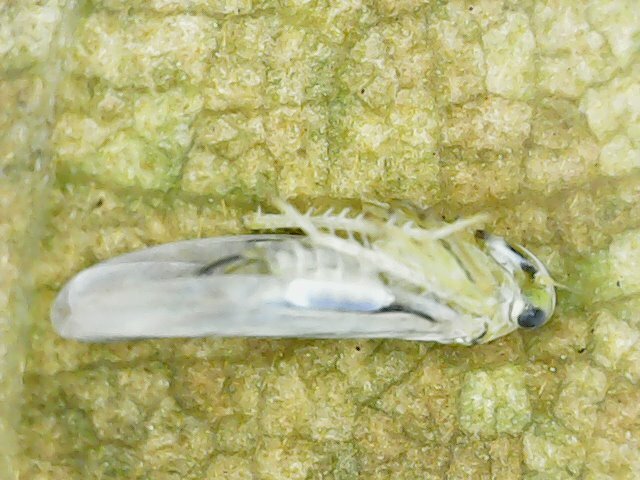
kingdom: Animalia
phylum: Arthropoda
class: Insecta
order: Hemiptera
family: Cicadellidae
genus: Singapora
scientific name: Singapora nigropunctata
